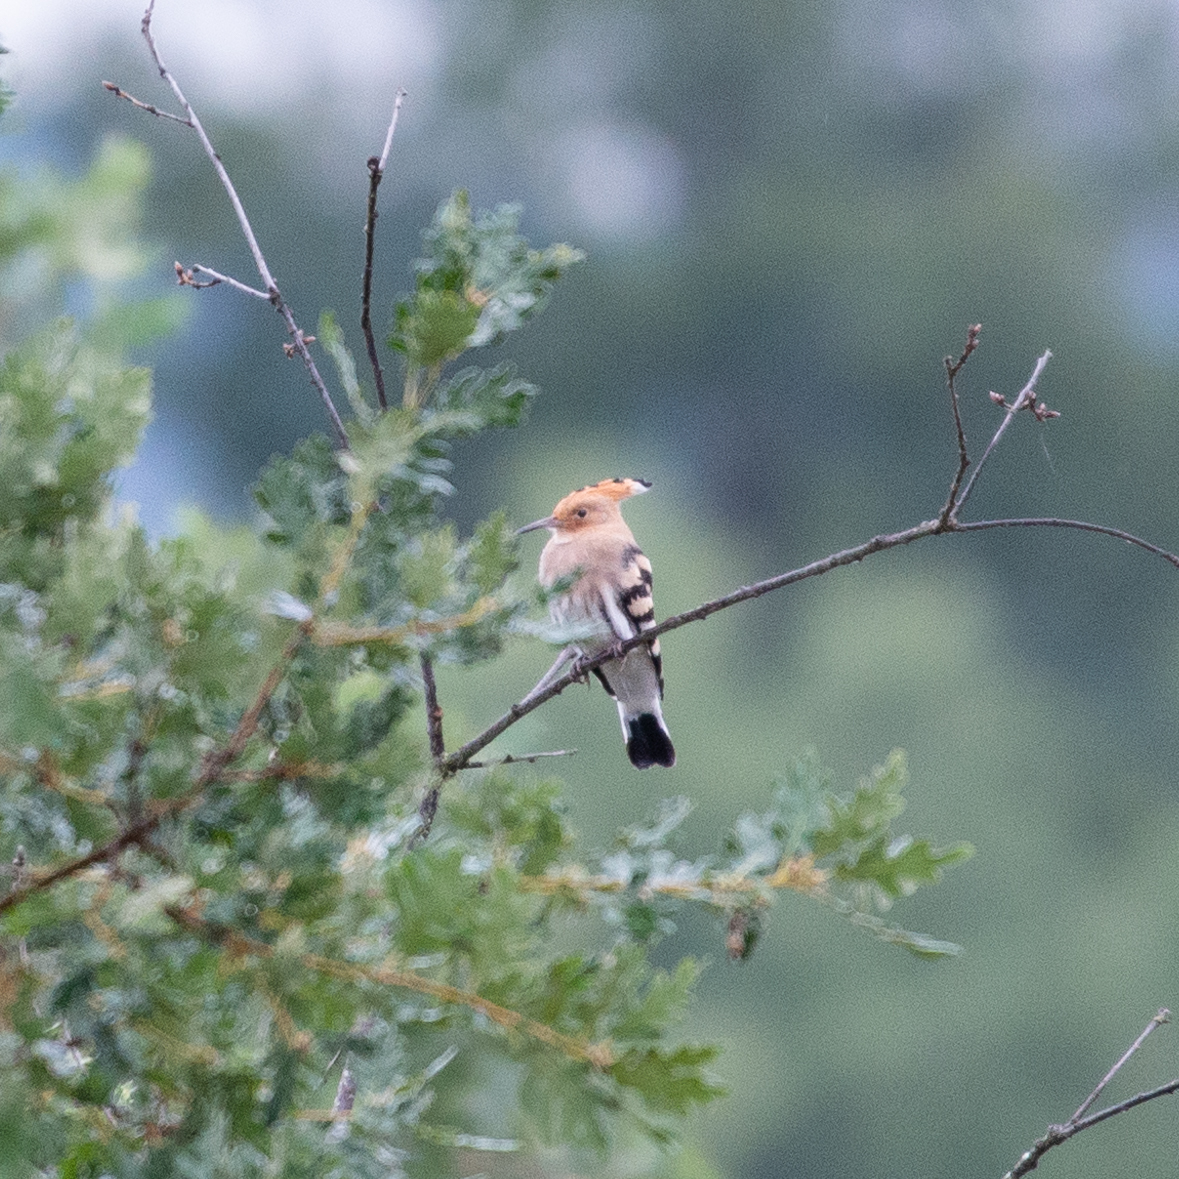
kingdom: Animalia
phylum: Chordata
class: Aves
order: Bucerotiformes
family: Upupidae
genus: Upupa
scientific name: Upupa epops
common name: Eurasian hoopoe
